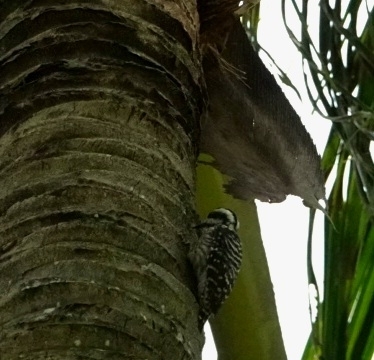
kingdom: Animalia
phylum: Chordata
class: Aves
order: Piciformes
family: Picidae
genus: Yungipicus
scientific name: Yungipicus moluccensis
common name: Sunda pygmy woodpecker
